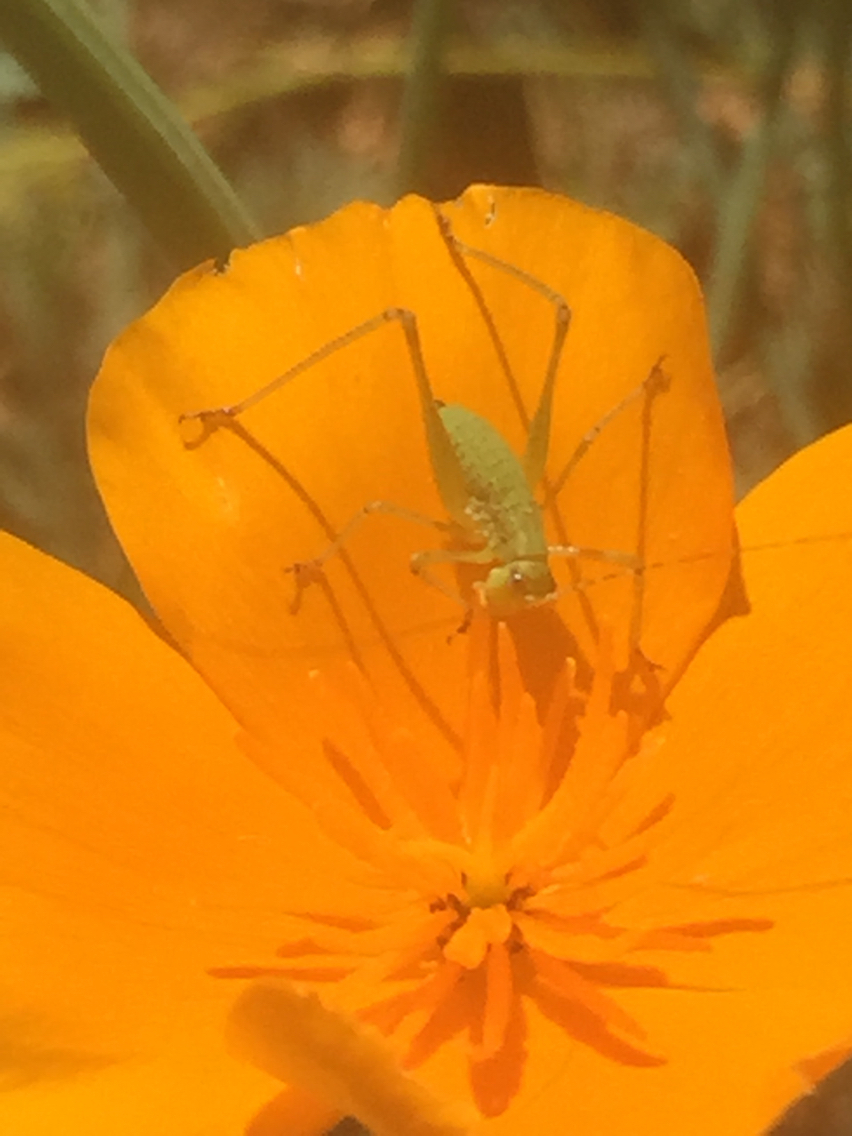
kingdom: Animalia
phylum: Arthropoda
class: Insecta
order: Orthoptera
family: Tettigoniidae
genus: Phaneroptera
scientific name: Phaneroptera nana
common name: Southern sickle bush-cricket
